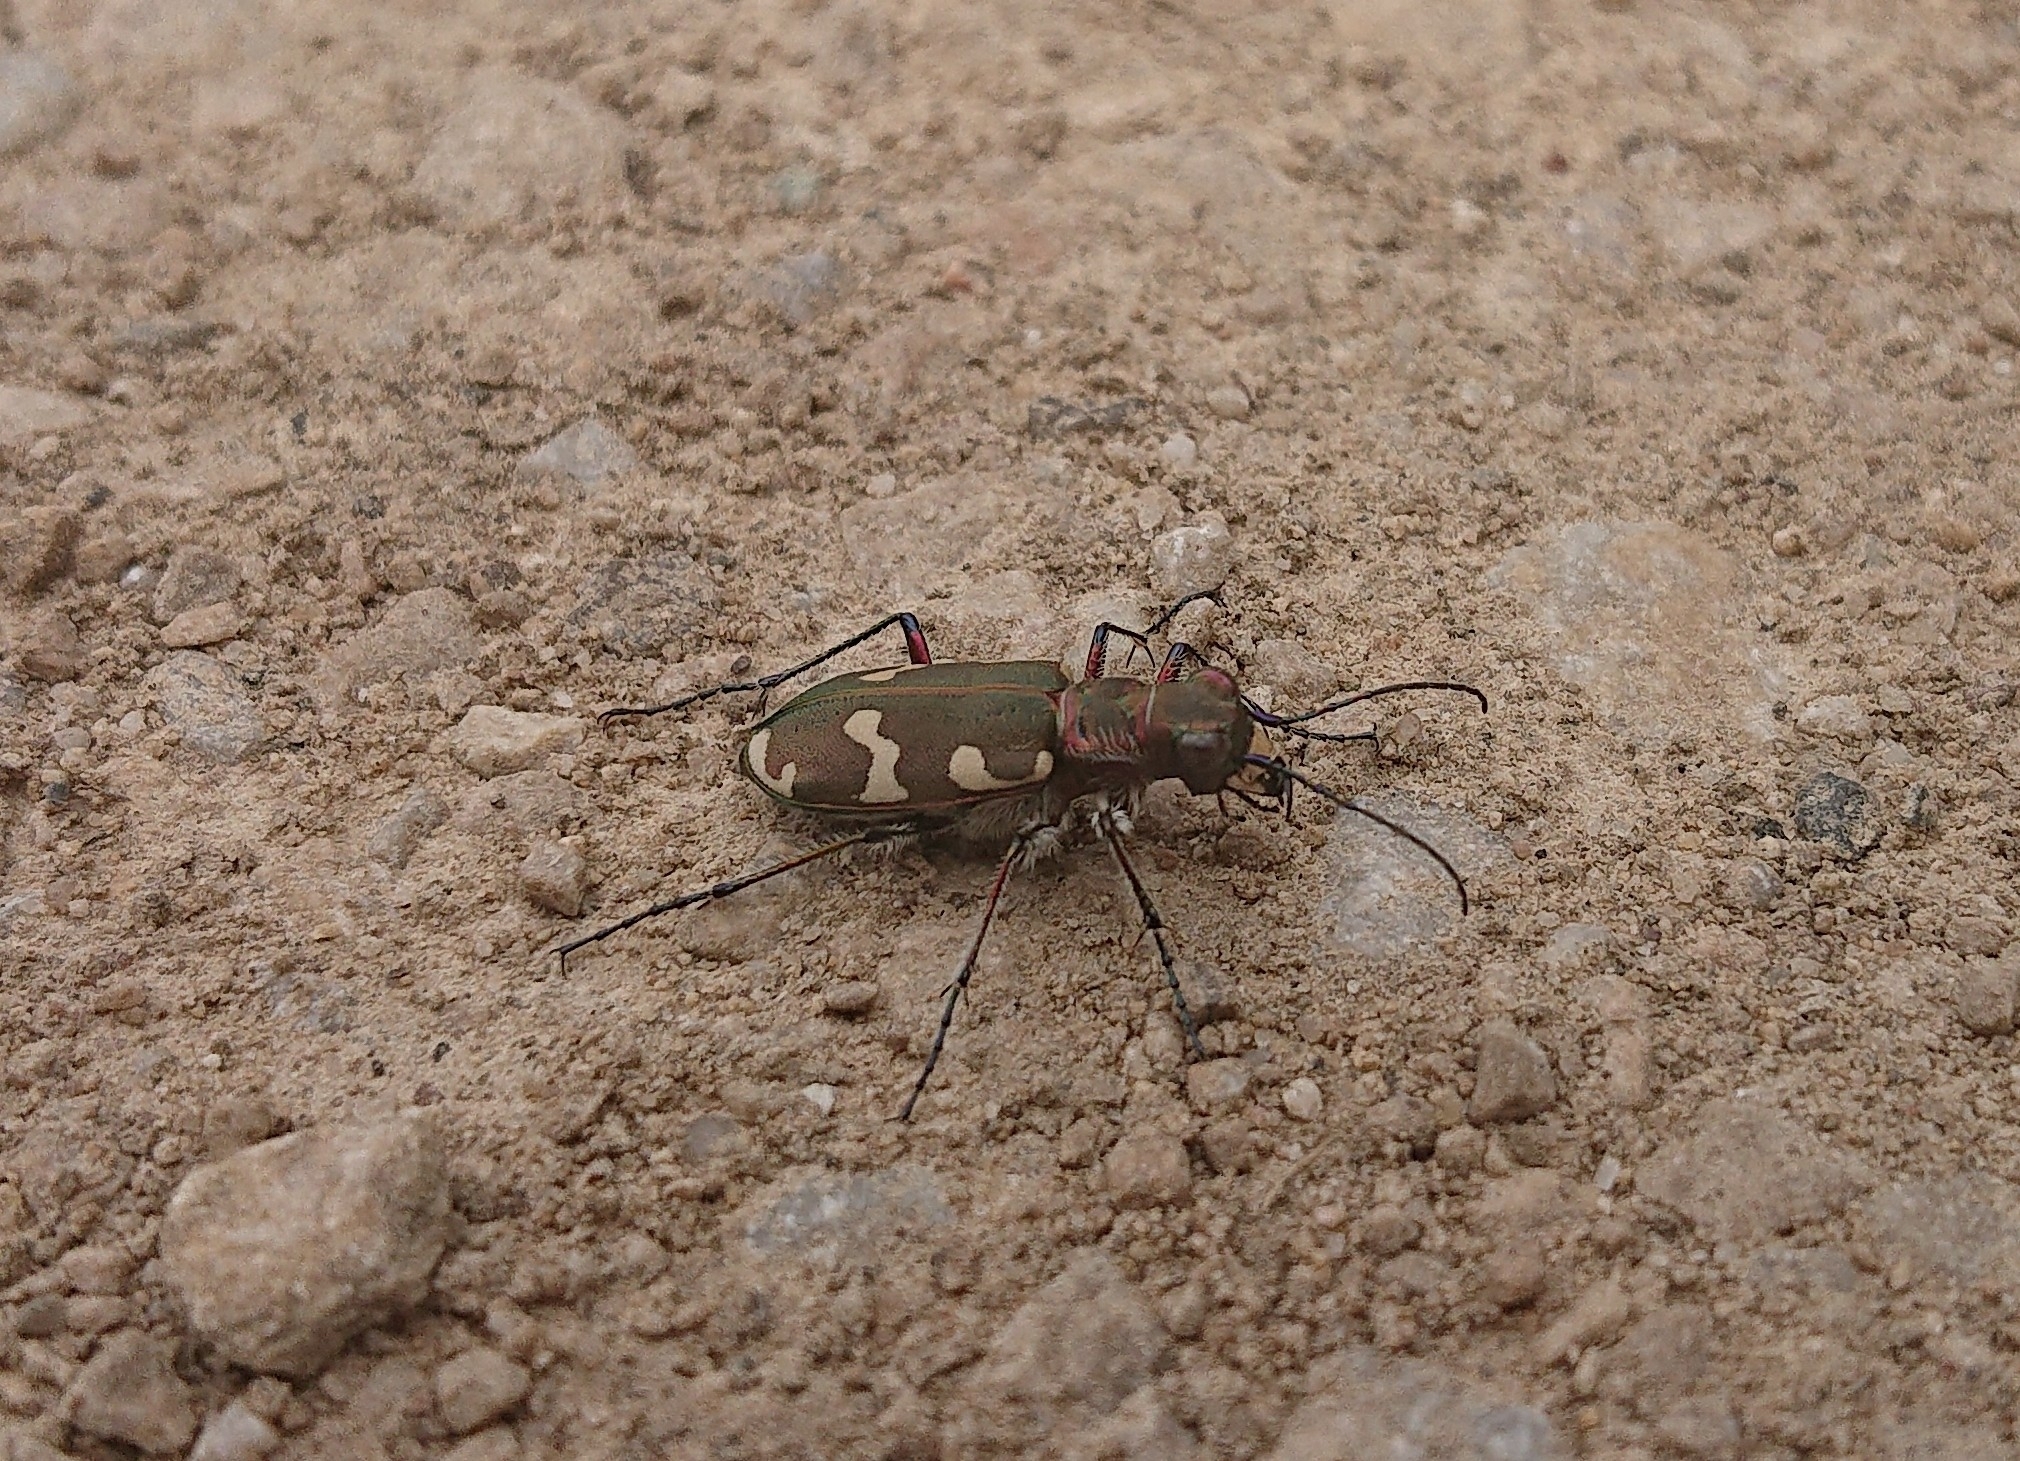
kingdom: Animalia
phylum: Arthropoda
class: Insecta
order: Coleoptera
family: Carabidae
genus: Cicindela
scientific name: Cicindela hybrida
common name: Northern dune tiger beetle
